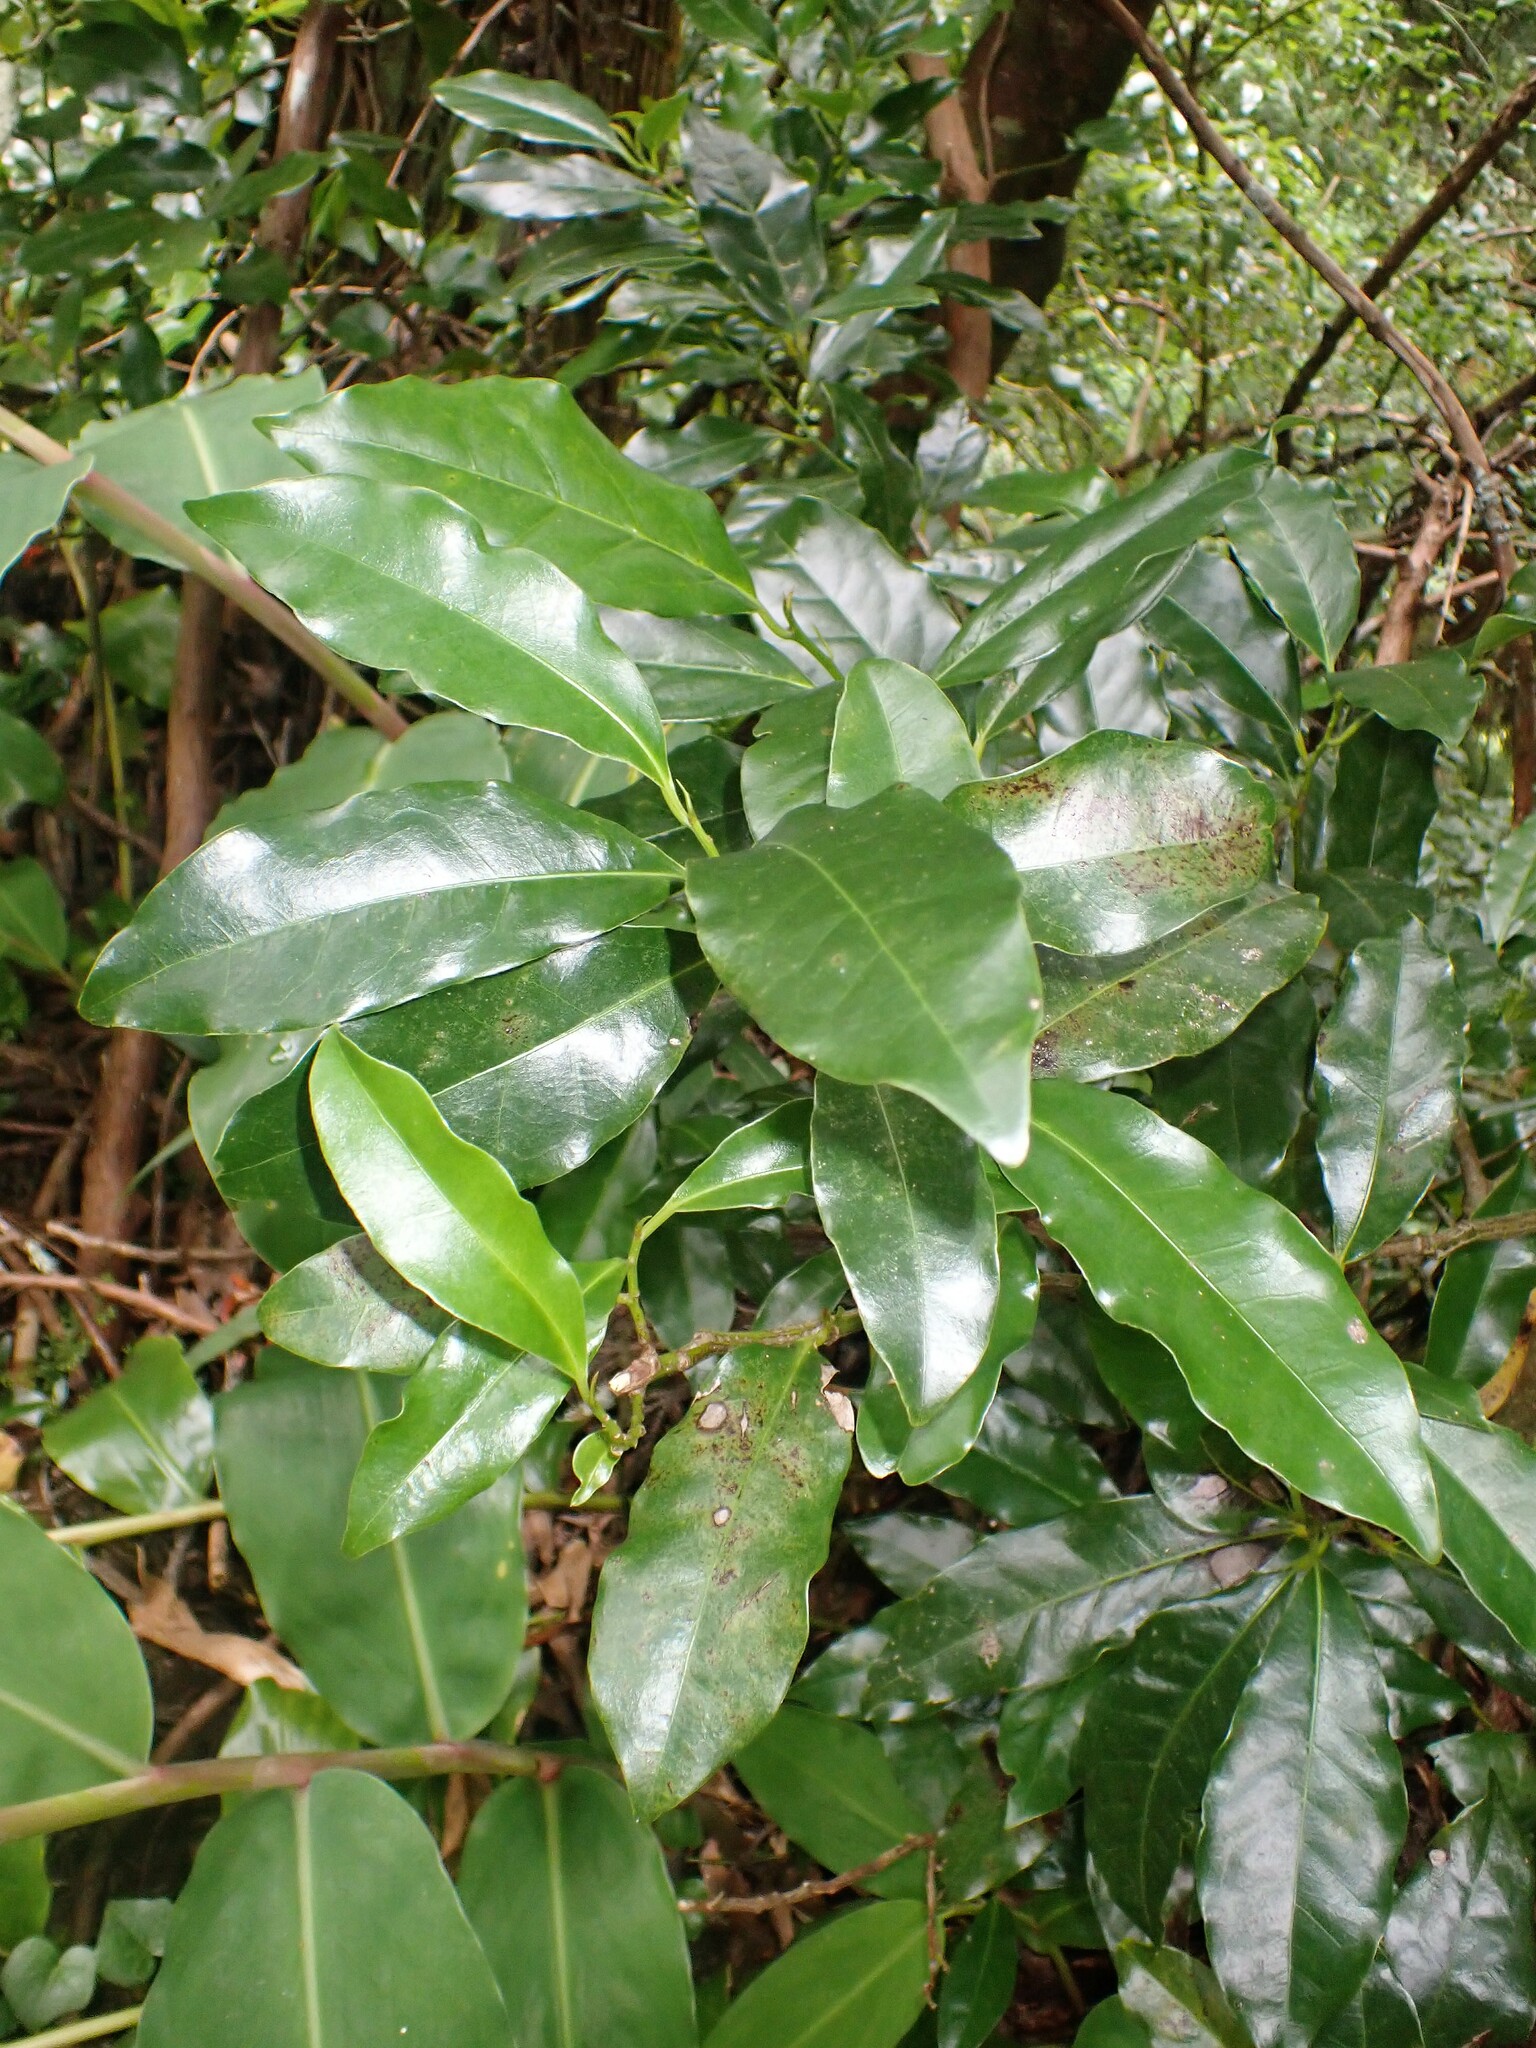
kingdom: Plantae
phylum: Tracheophyta
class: Magnoliopsida
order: Laurales
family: Lauraceae
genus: Mespilodaphne
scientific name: Mespilodaphne foetens
